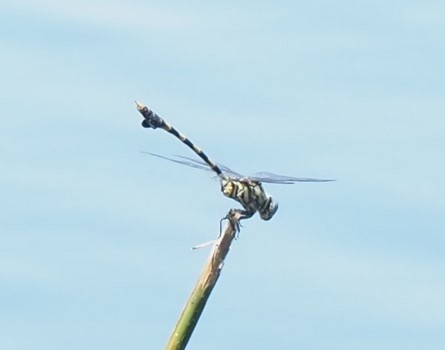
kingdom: Animalia
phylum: Arthropoda
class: Insecta
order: Odonata
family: Gomphidae
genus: Ictinogomphus
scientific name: Ictinogomphus ferox
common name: Common tiger
